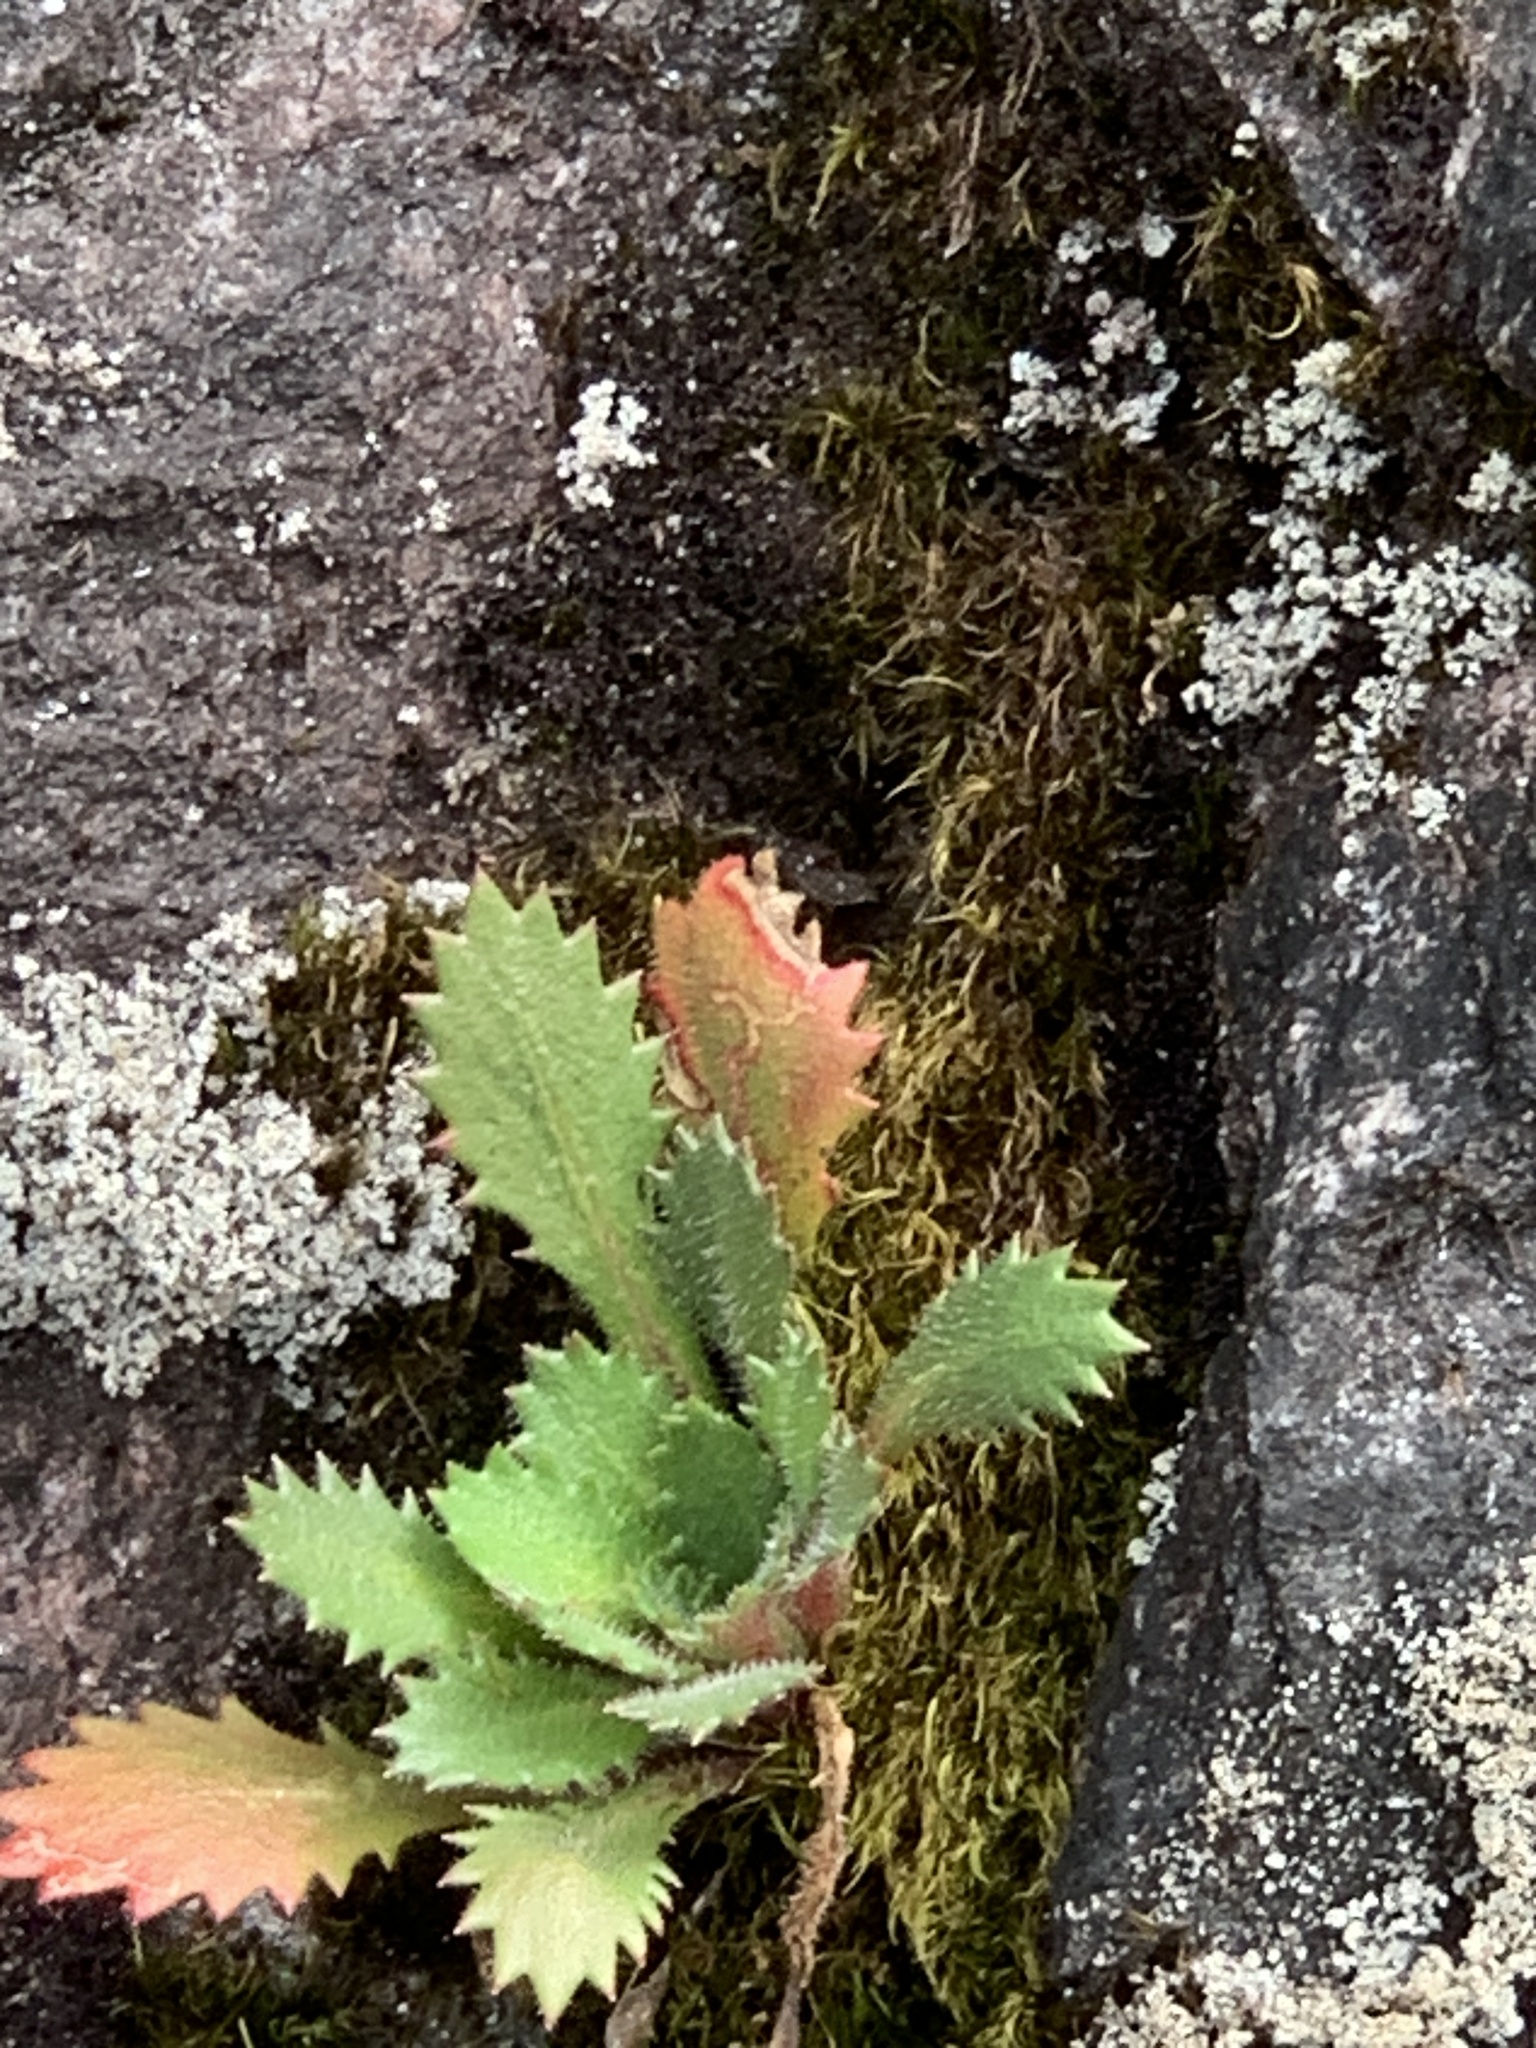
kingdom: Plantae
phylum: Tracheophyta
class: Magnoliopsida
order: Saxifragales
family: Saxifragaceae
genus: Micranthes
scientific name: Micranthes petiolaris
